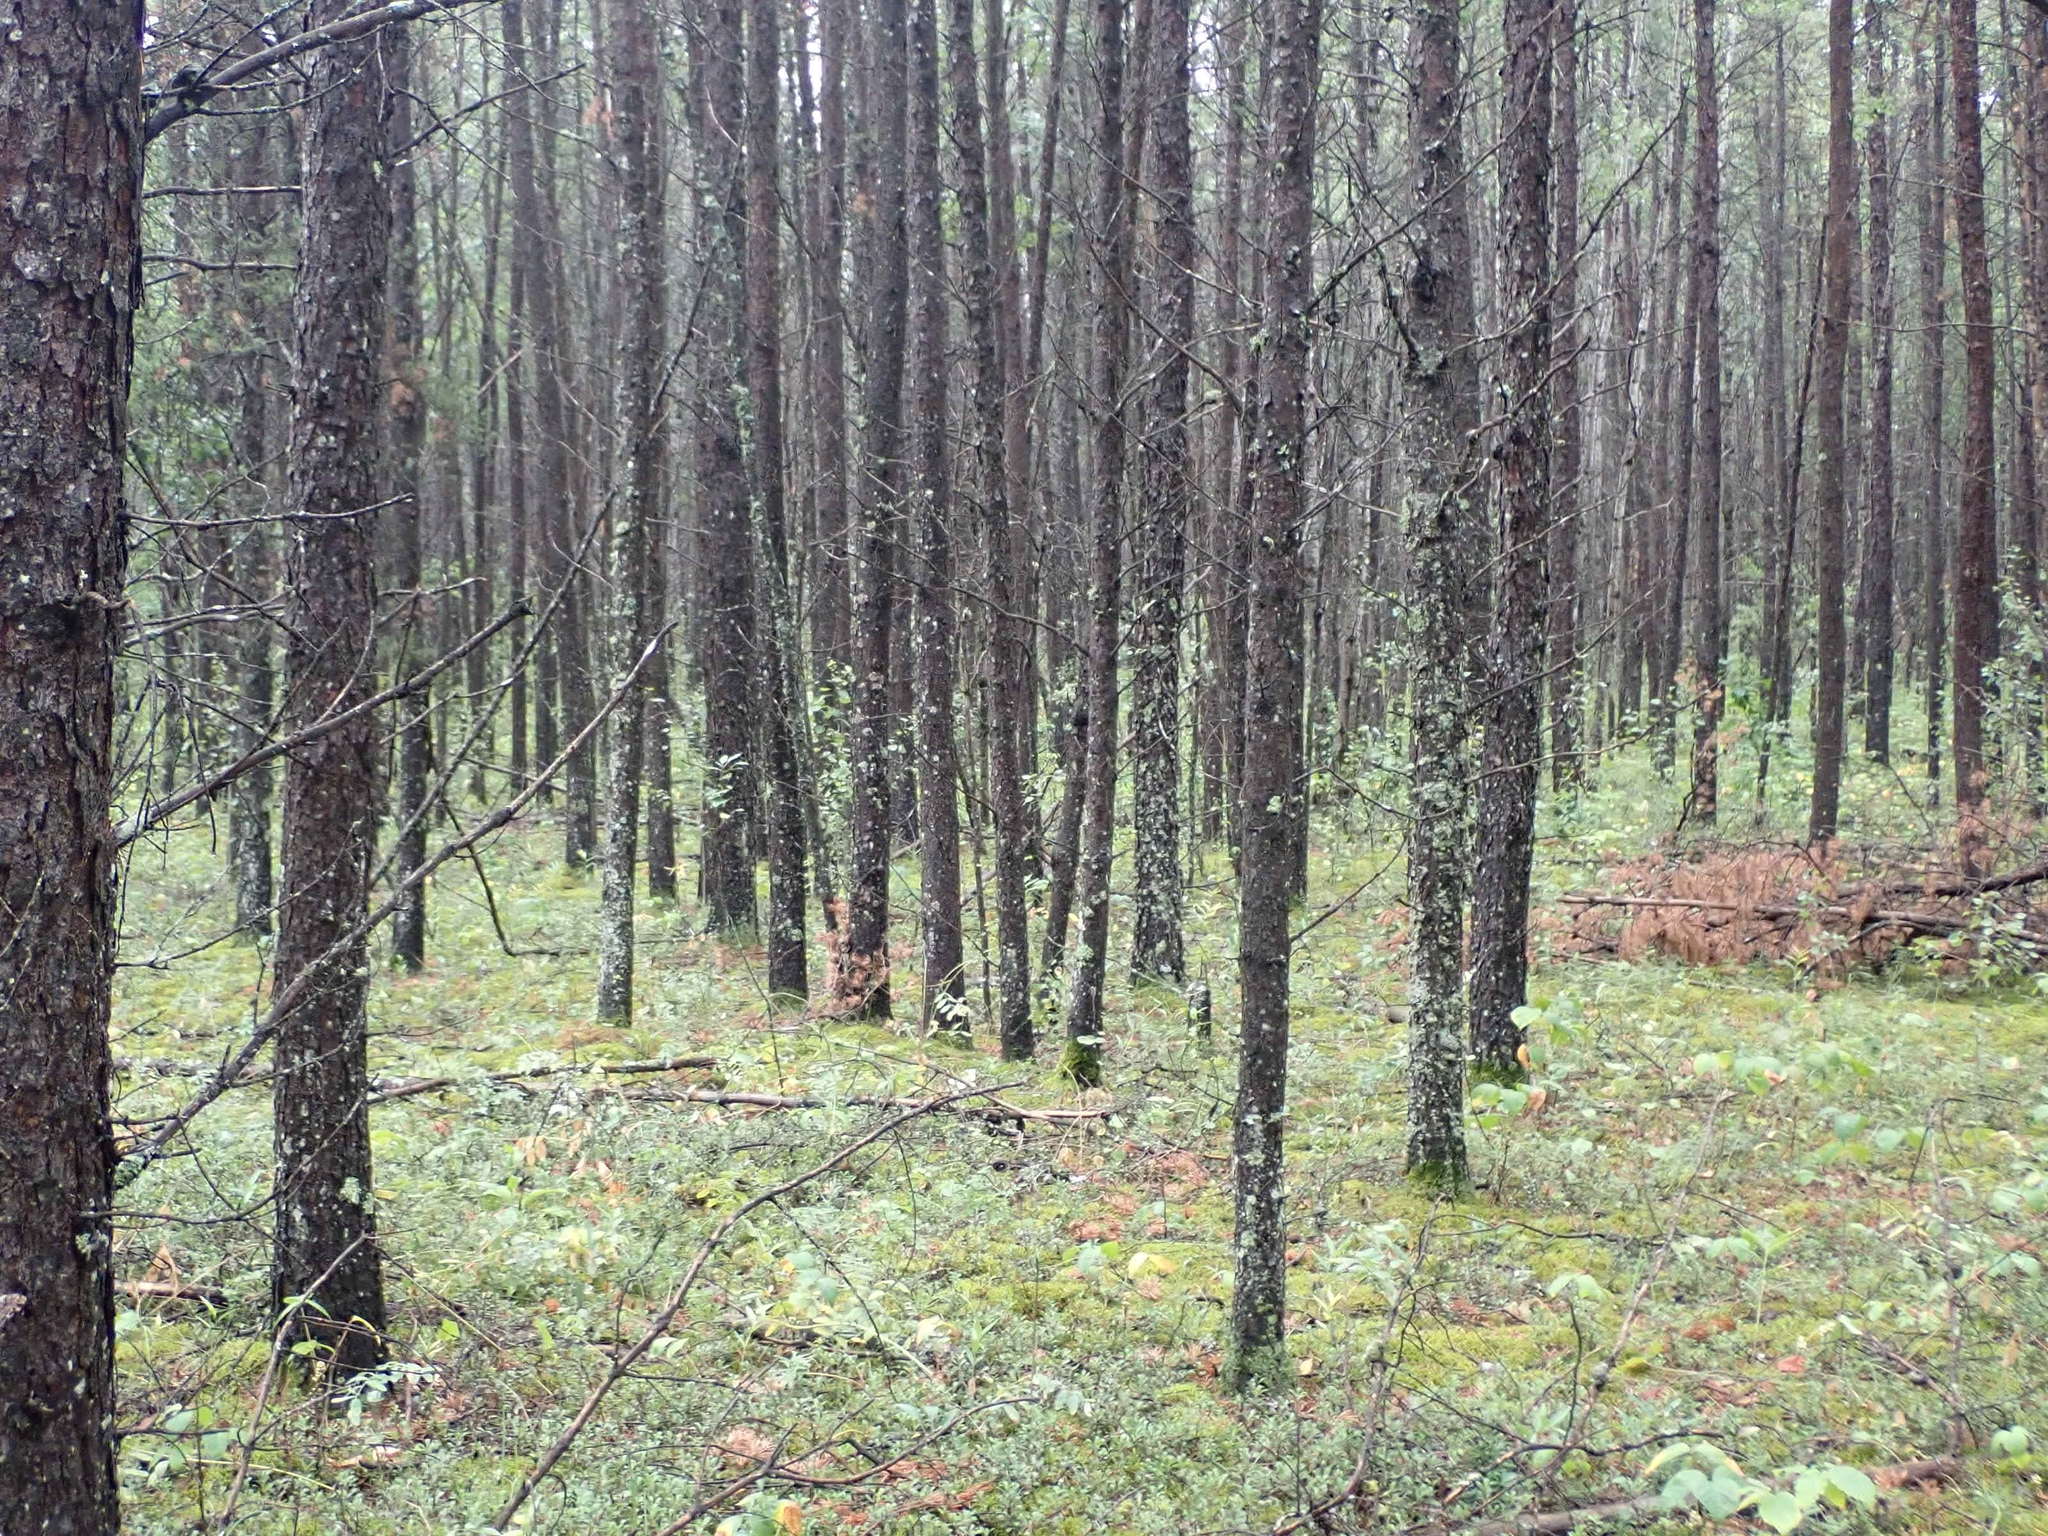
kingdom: Plantae
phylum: Tracheophyta
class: Pinopsida
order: Pinales
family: Pinaceae
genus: Pinus
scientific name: Pinus banksiana
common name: Jack pine
